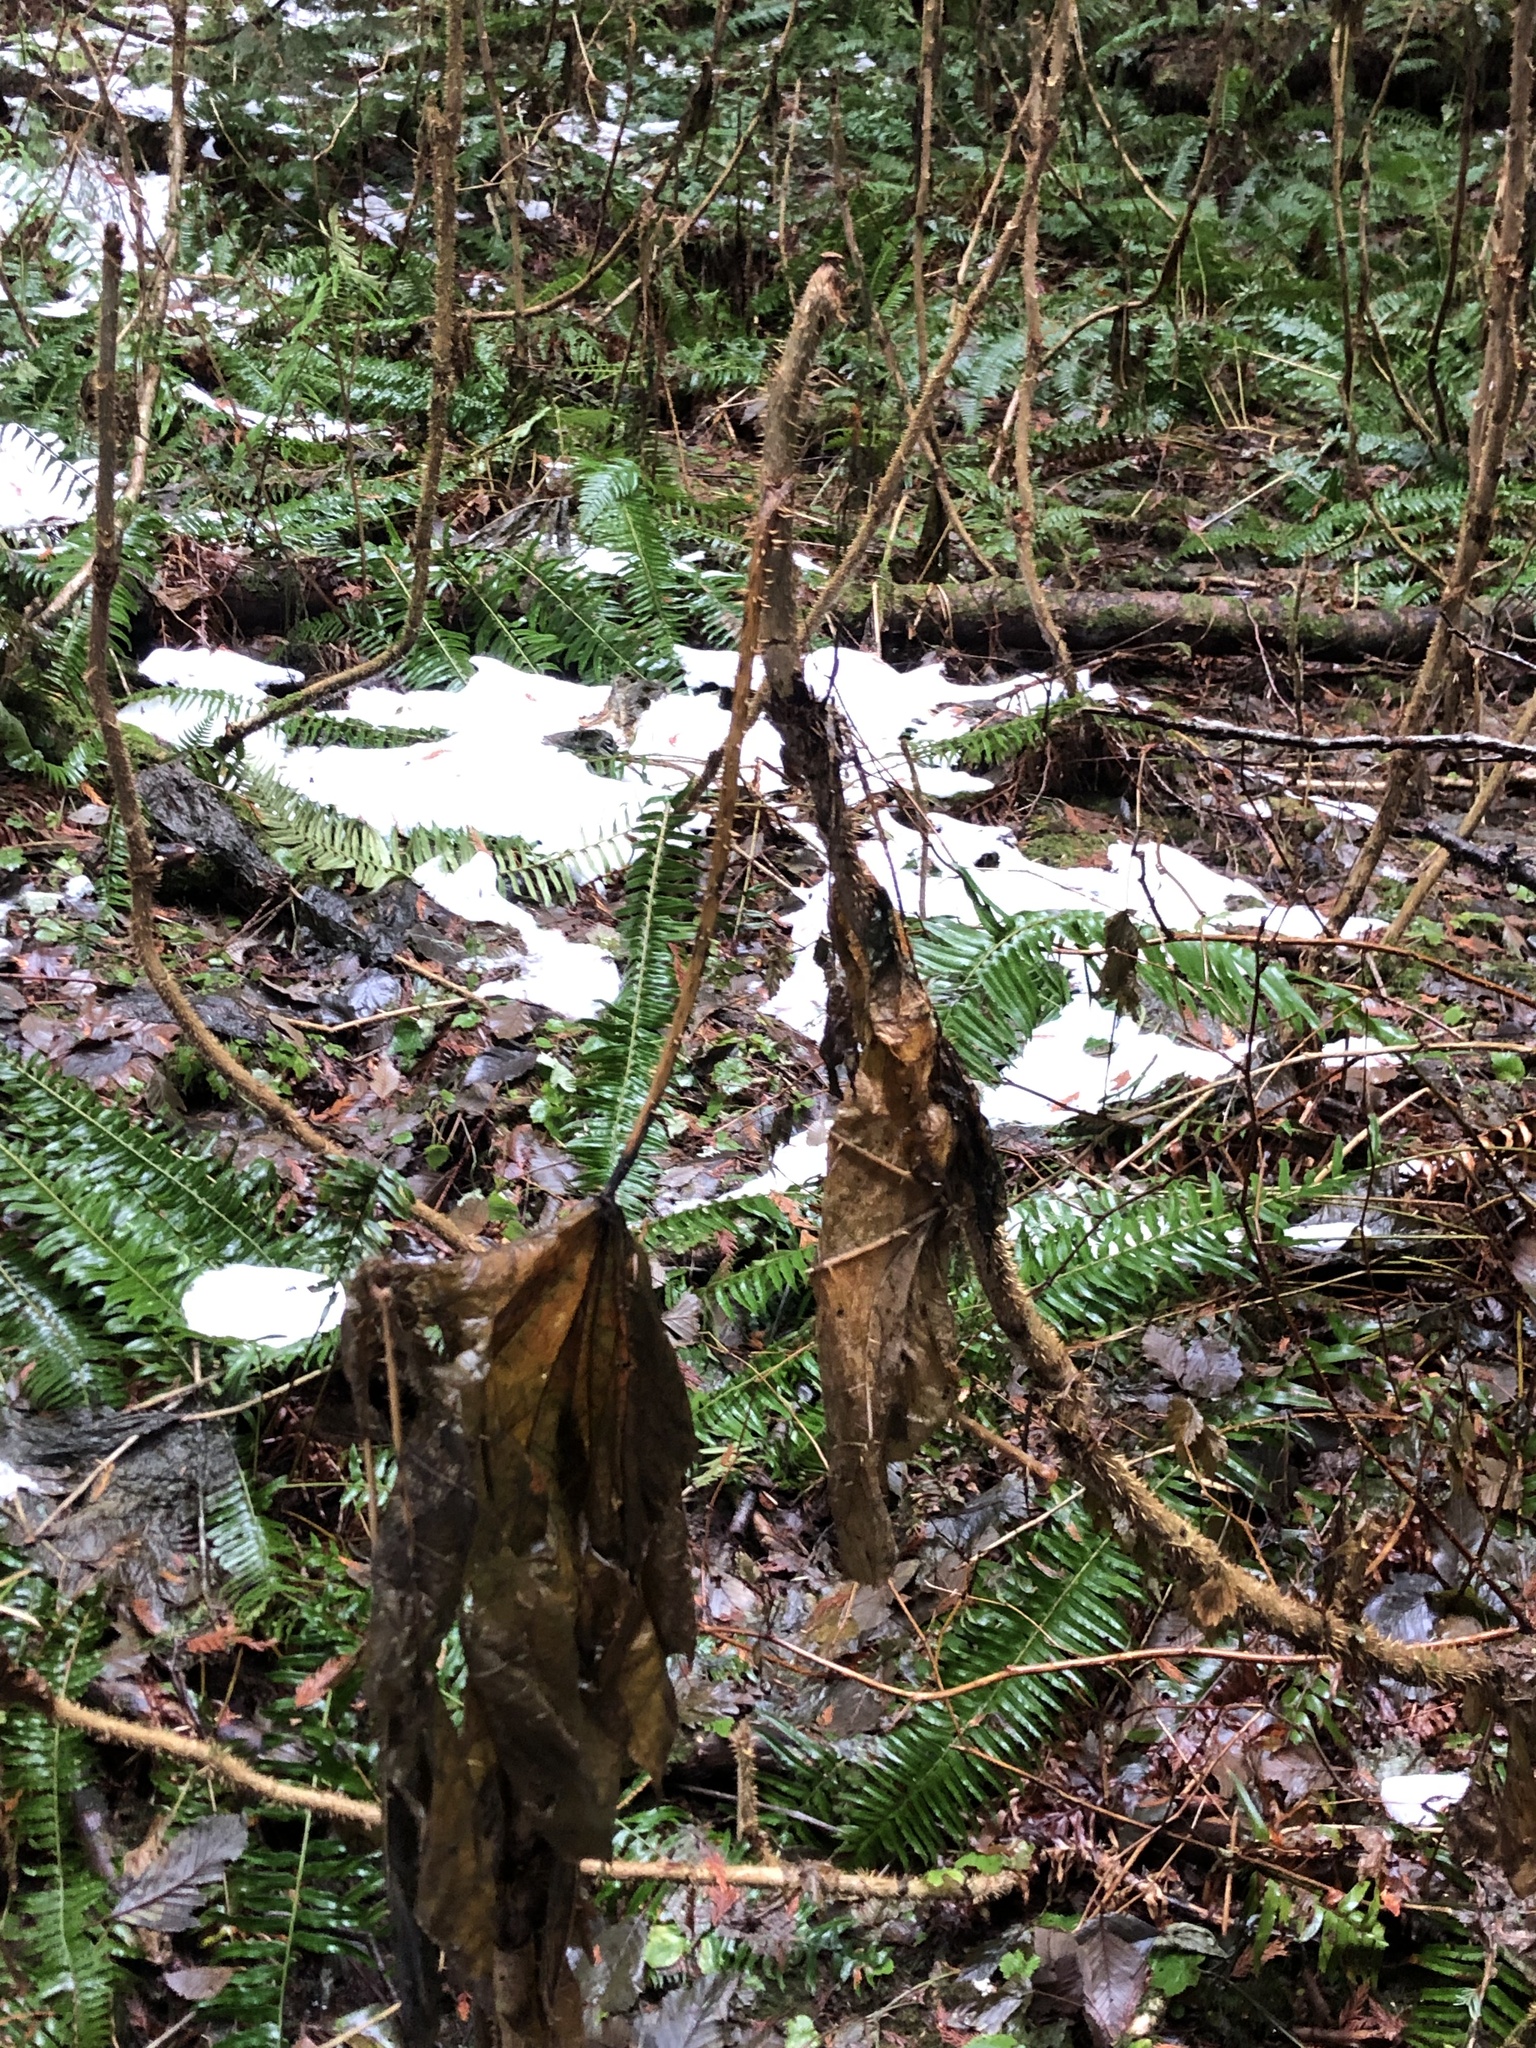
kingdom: Plantae
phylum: Tracheophyta
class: Magnoliopsida
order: Apiales
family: Araliaceae
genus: Oplopanax
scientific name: Oplopanax horridus
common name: Devil's walking-stick
